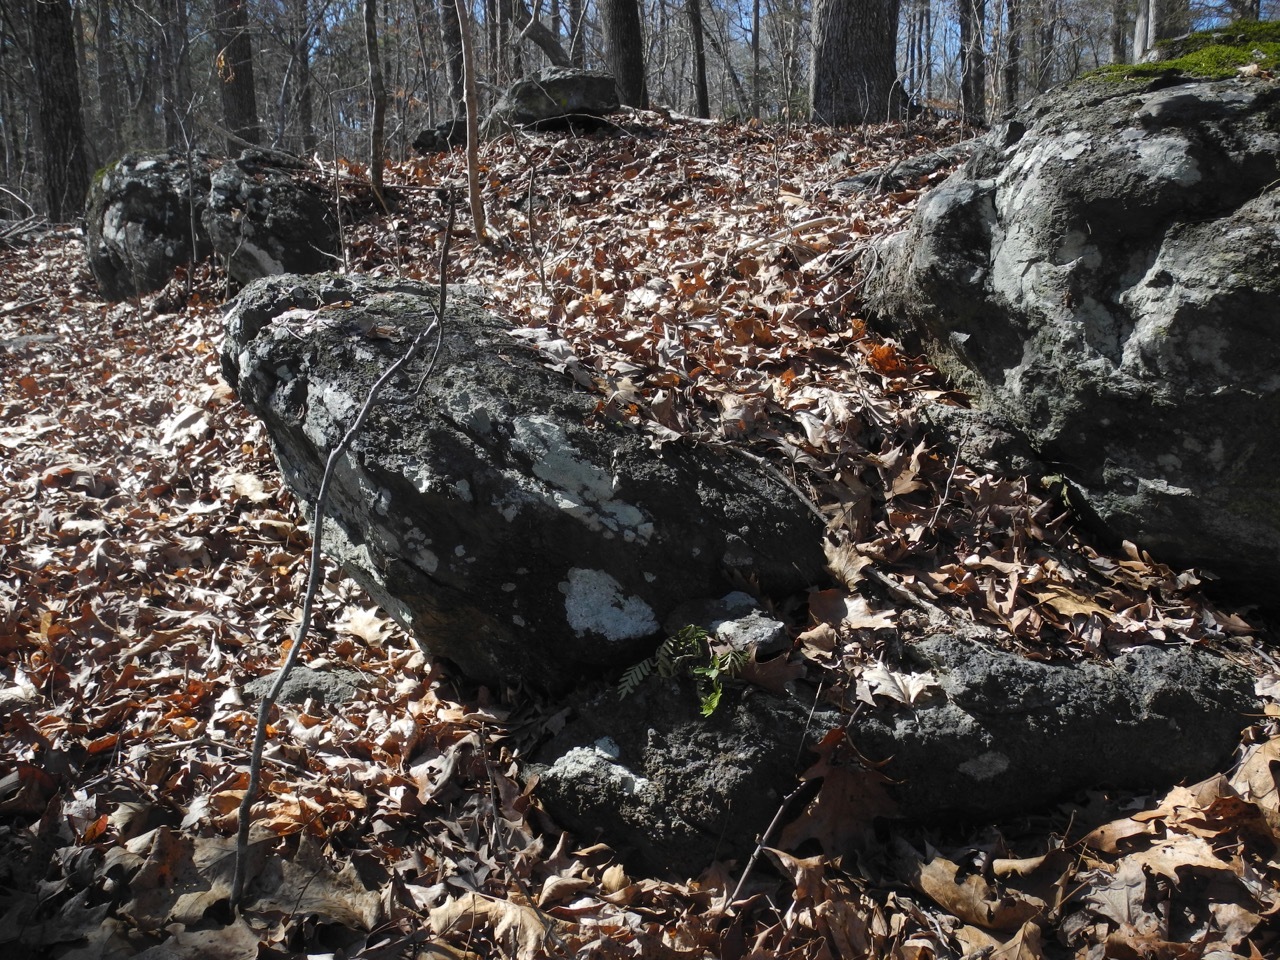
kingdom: Plantae
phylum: Tracheophyta
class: Polypodiopsida
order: Polypodiales
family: Polypodiaceae
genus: Pleopeltis
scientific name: Pleopeltis michauxiana
